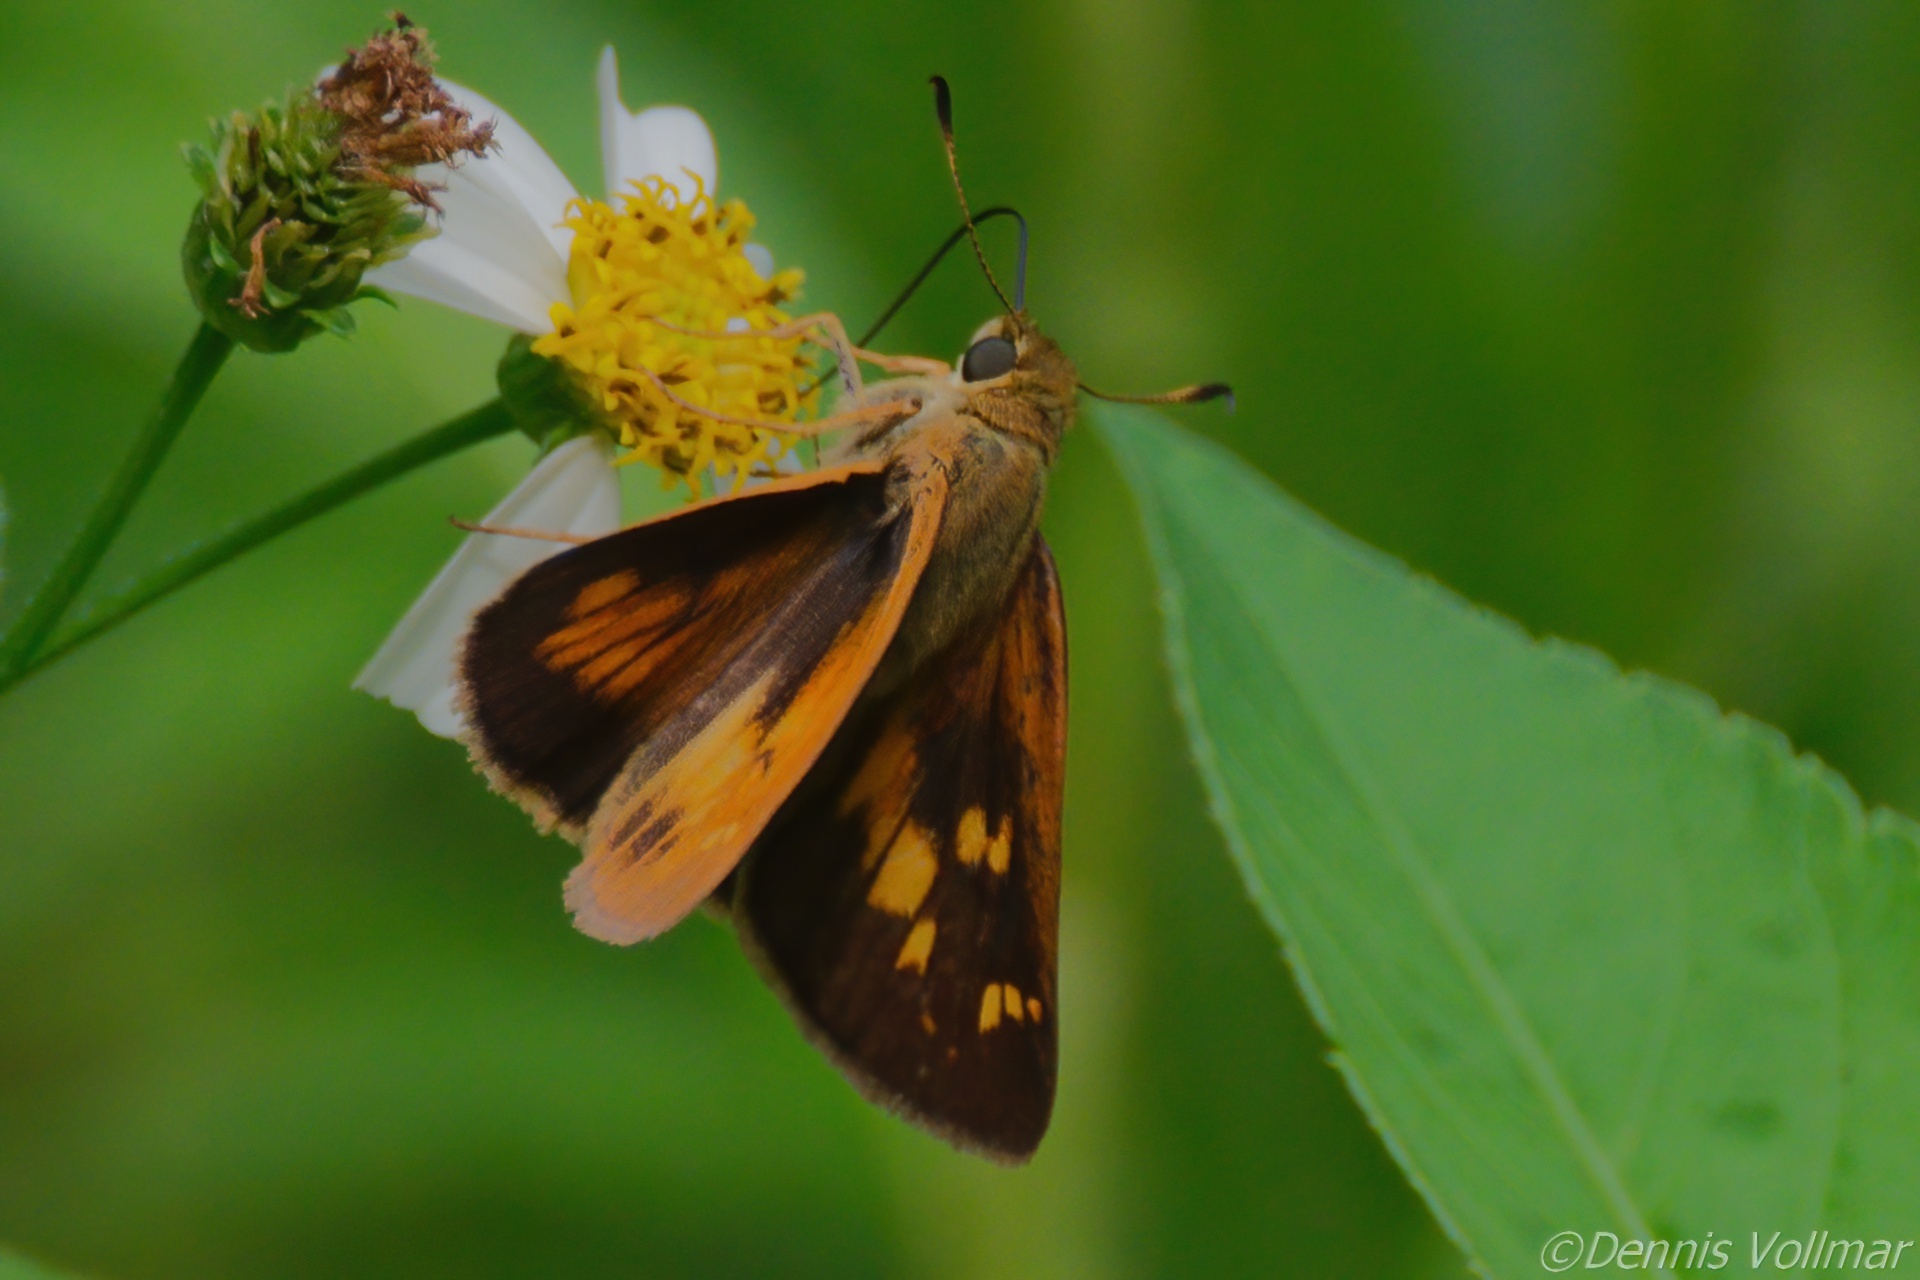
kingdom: Animalia
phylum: Arthropoda
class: Insecta
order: Lepidoptera
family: Hesperiidae
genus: Problema
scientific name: Problema byssus
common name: Byssus skipper
